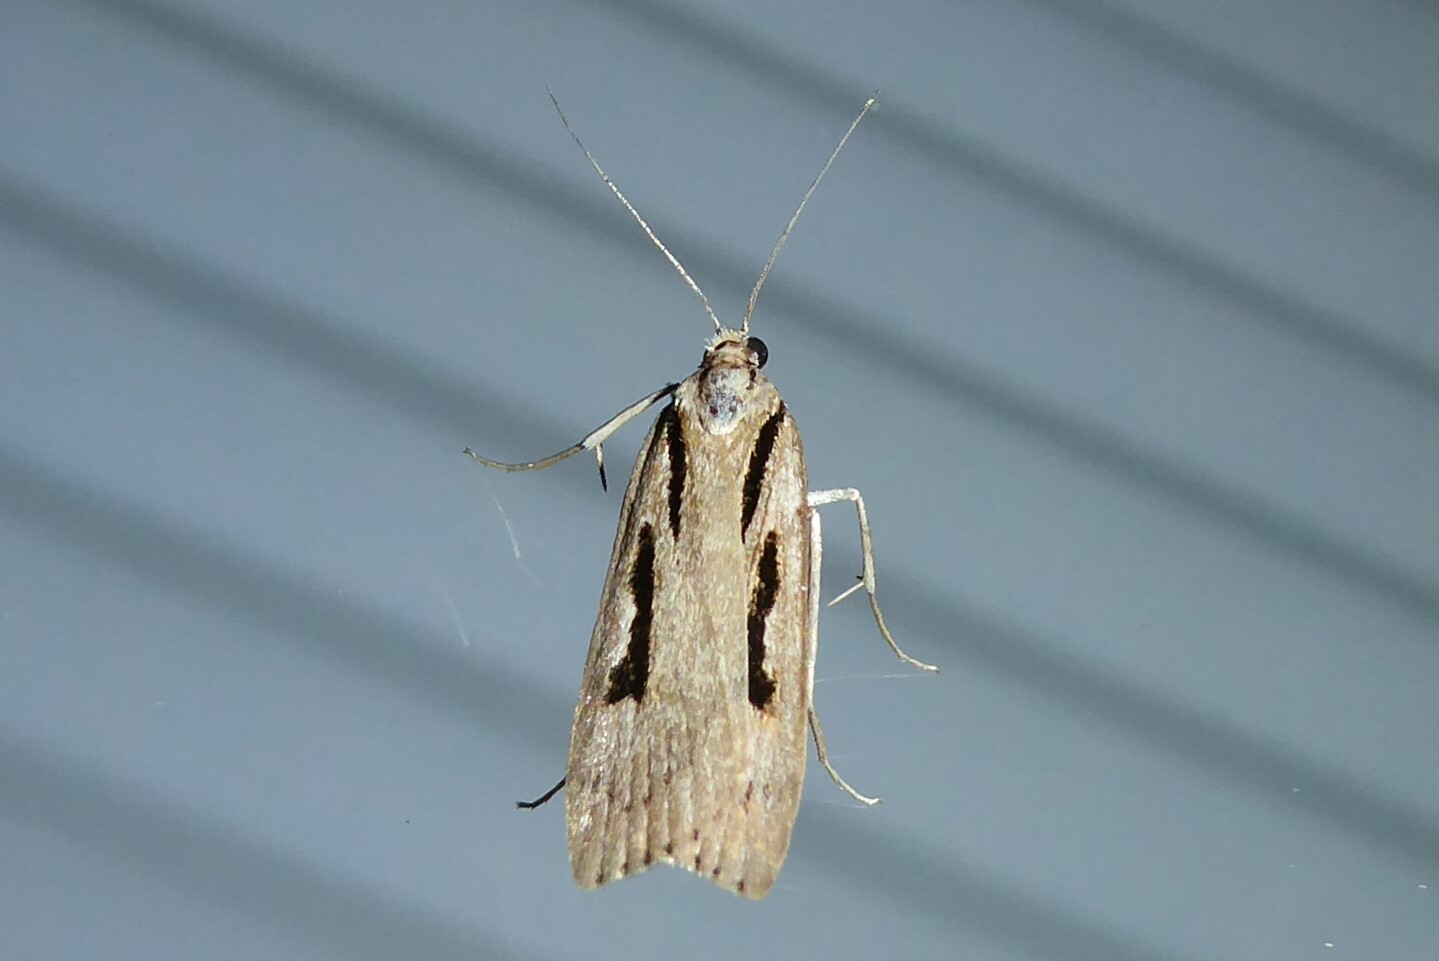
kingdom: Animalia
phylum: Arthropoda
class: Insecta
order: Lepidoptera
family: Crambidae
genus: Scoparia
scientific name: Scoparia rotuellus
